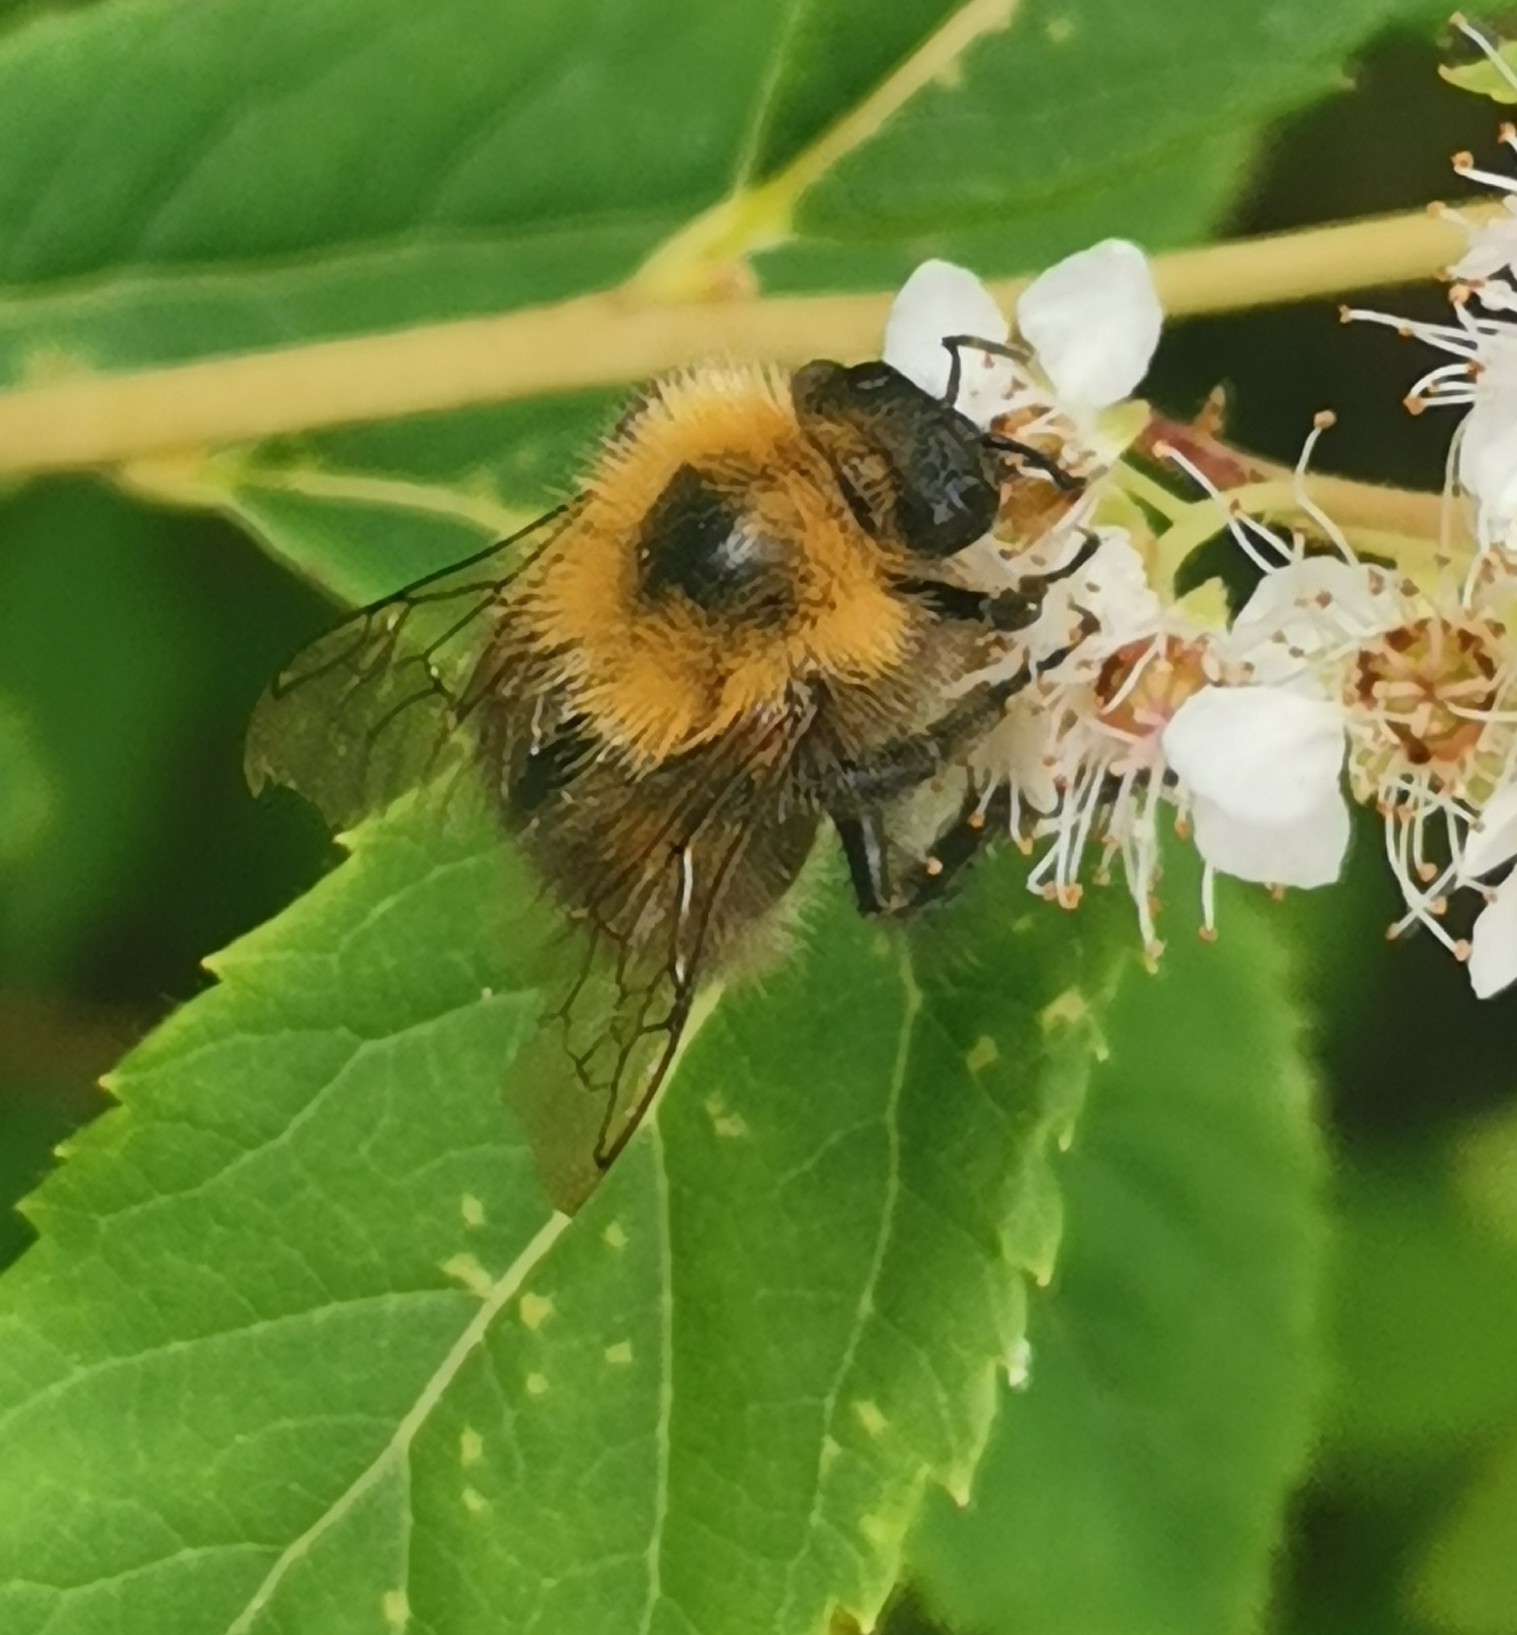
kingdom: Animalia
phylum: Arthropoda
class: Insecta
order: Hymenoptera
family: Apidae
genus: Bombus
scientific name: Bombus hypnorum
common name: New garden bumblebee
